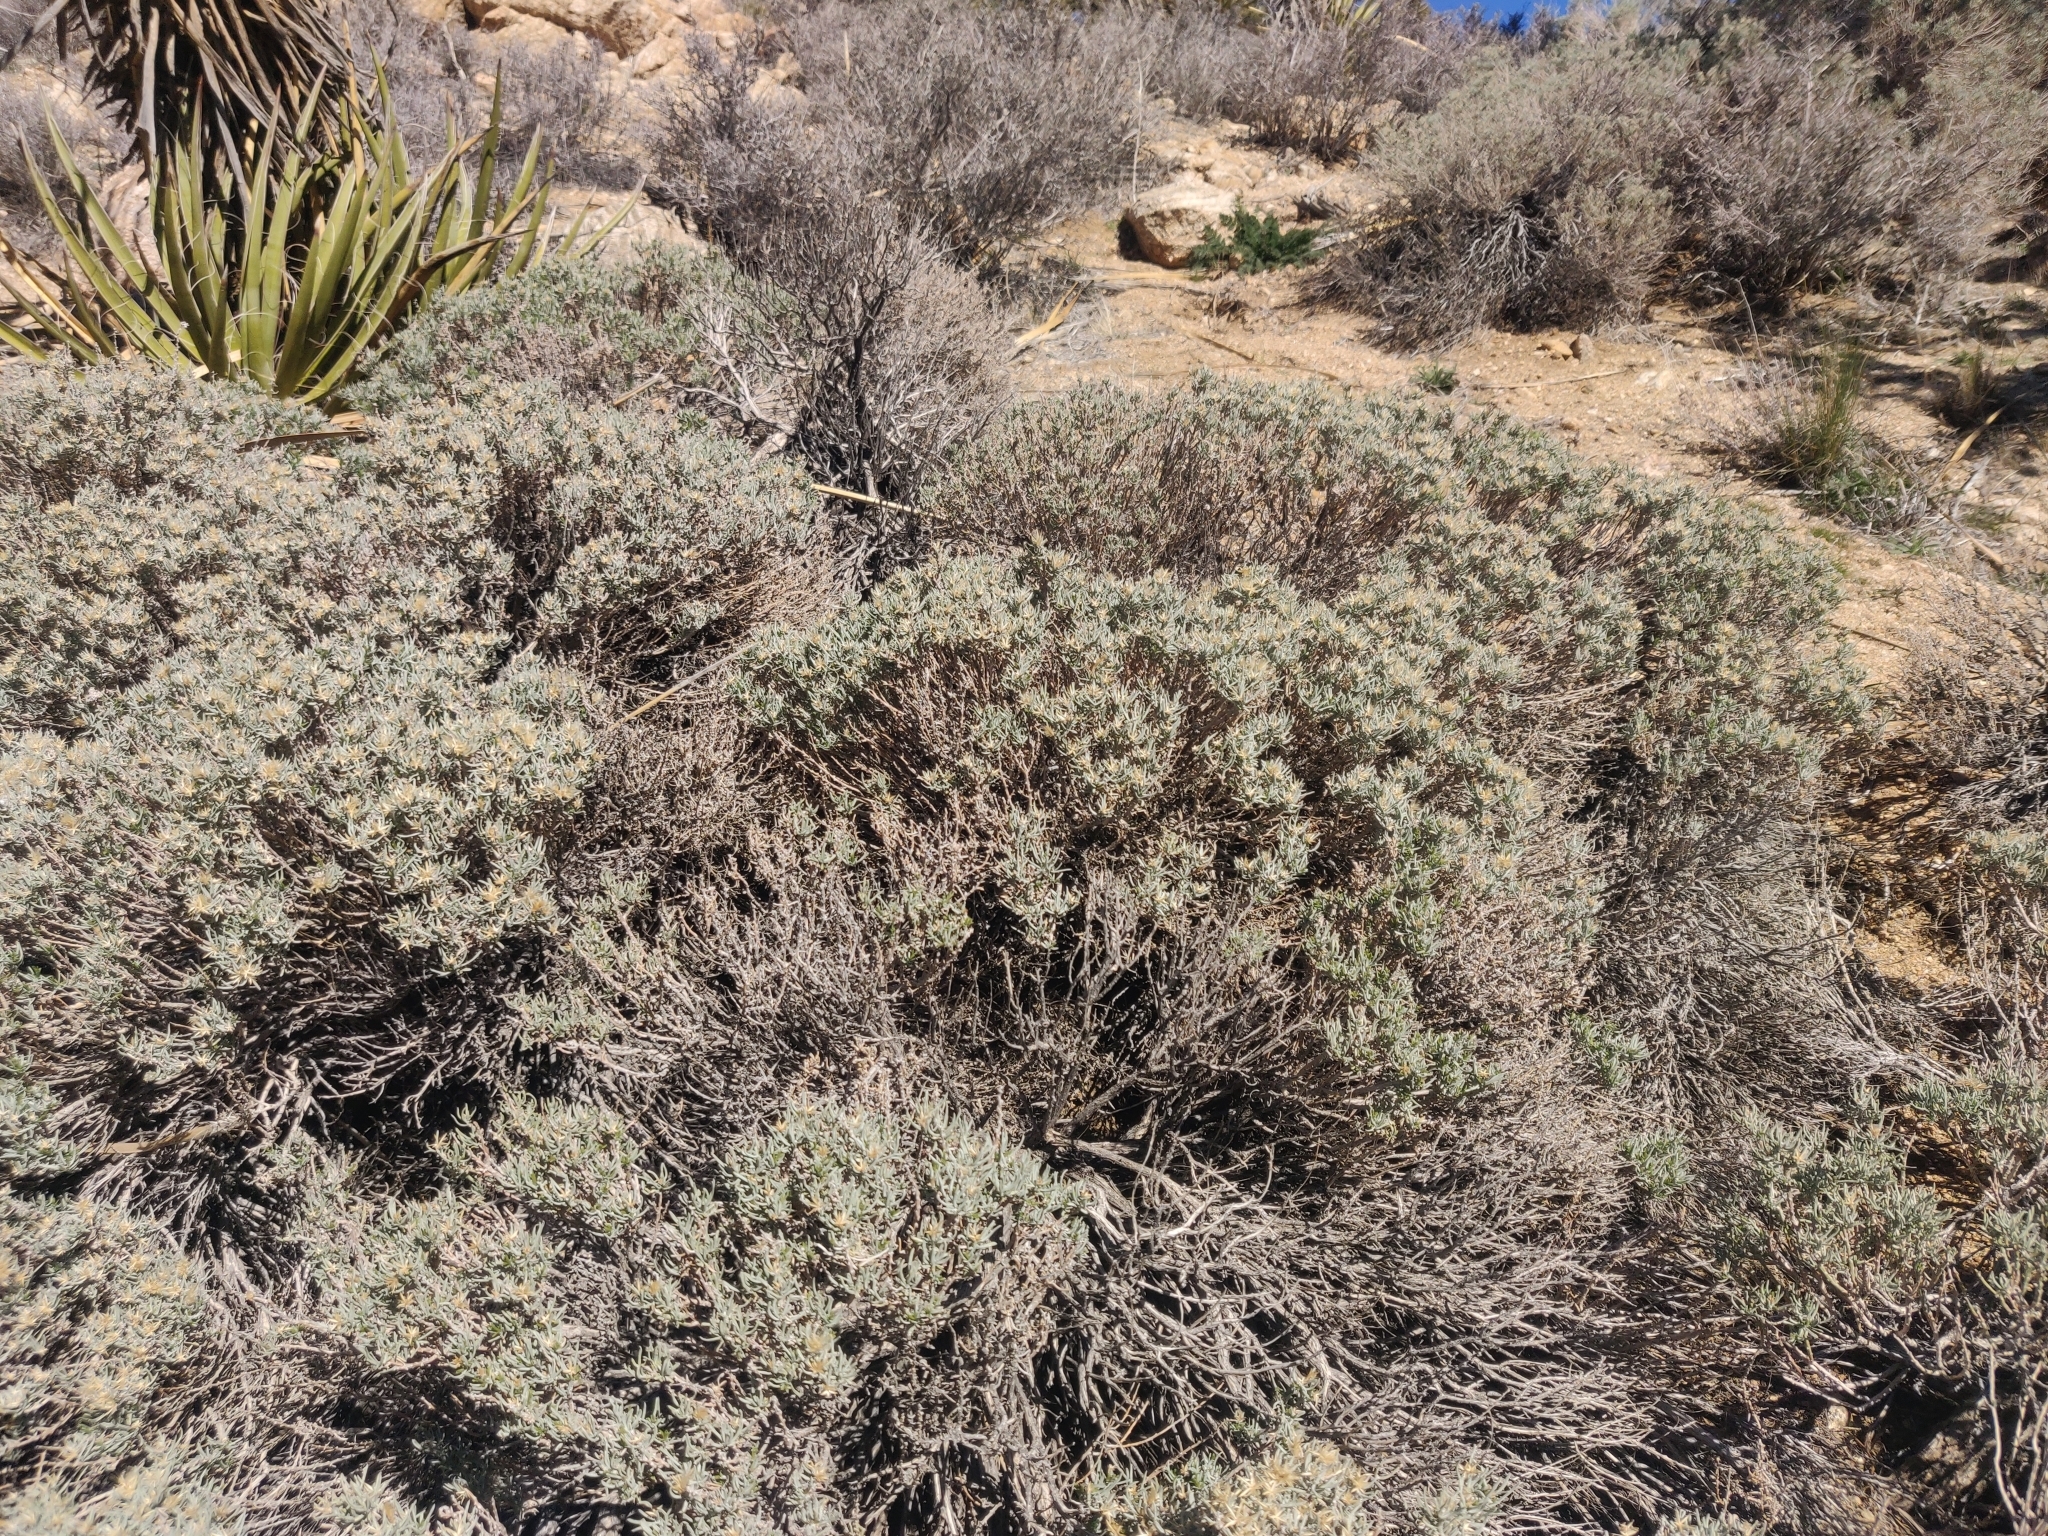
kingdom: Plantae
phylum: Tracheophyta
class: Magnoliopsida
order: Asterales
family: Asteraceae
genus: Ericameria
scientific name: Ericameria teretifolia
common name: Round-leaf rabbitbrush
